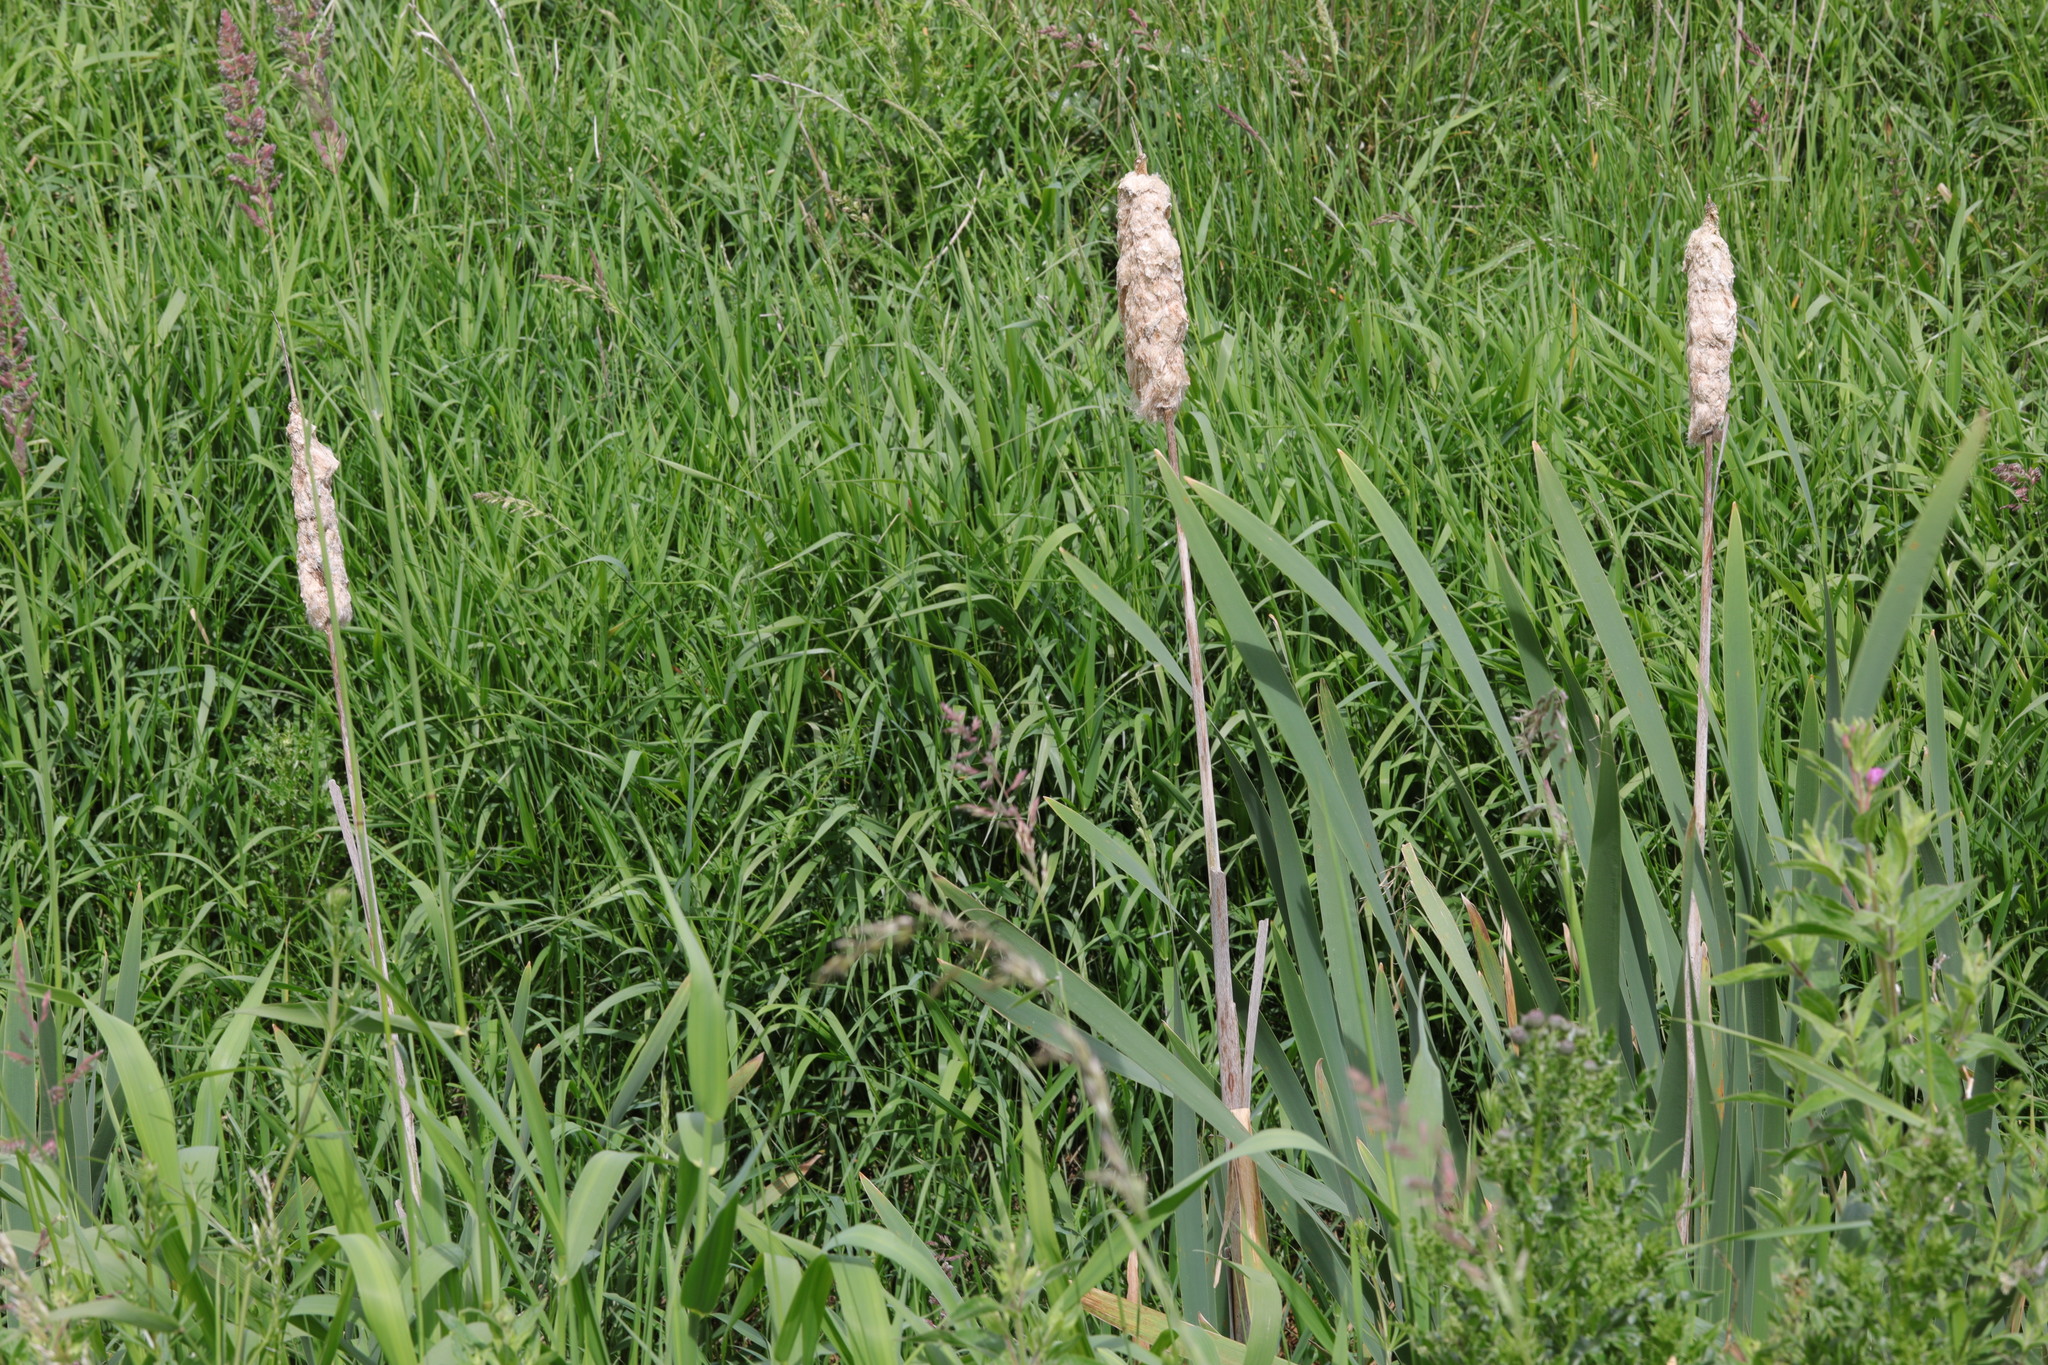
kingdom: Plantae
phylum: Tracheophyta
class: Liliopsida
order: Poales
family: Typhaceae
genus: Typha
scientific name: Typha latifolia
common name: Broadleaf cattail
